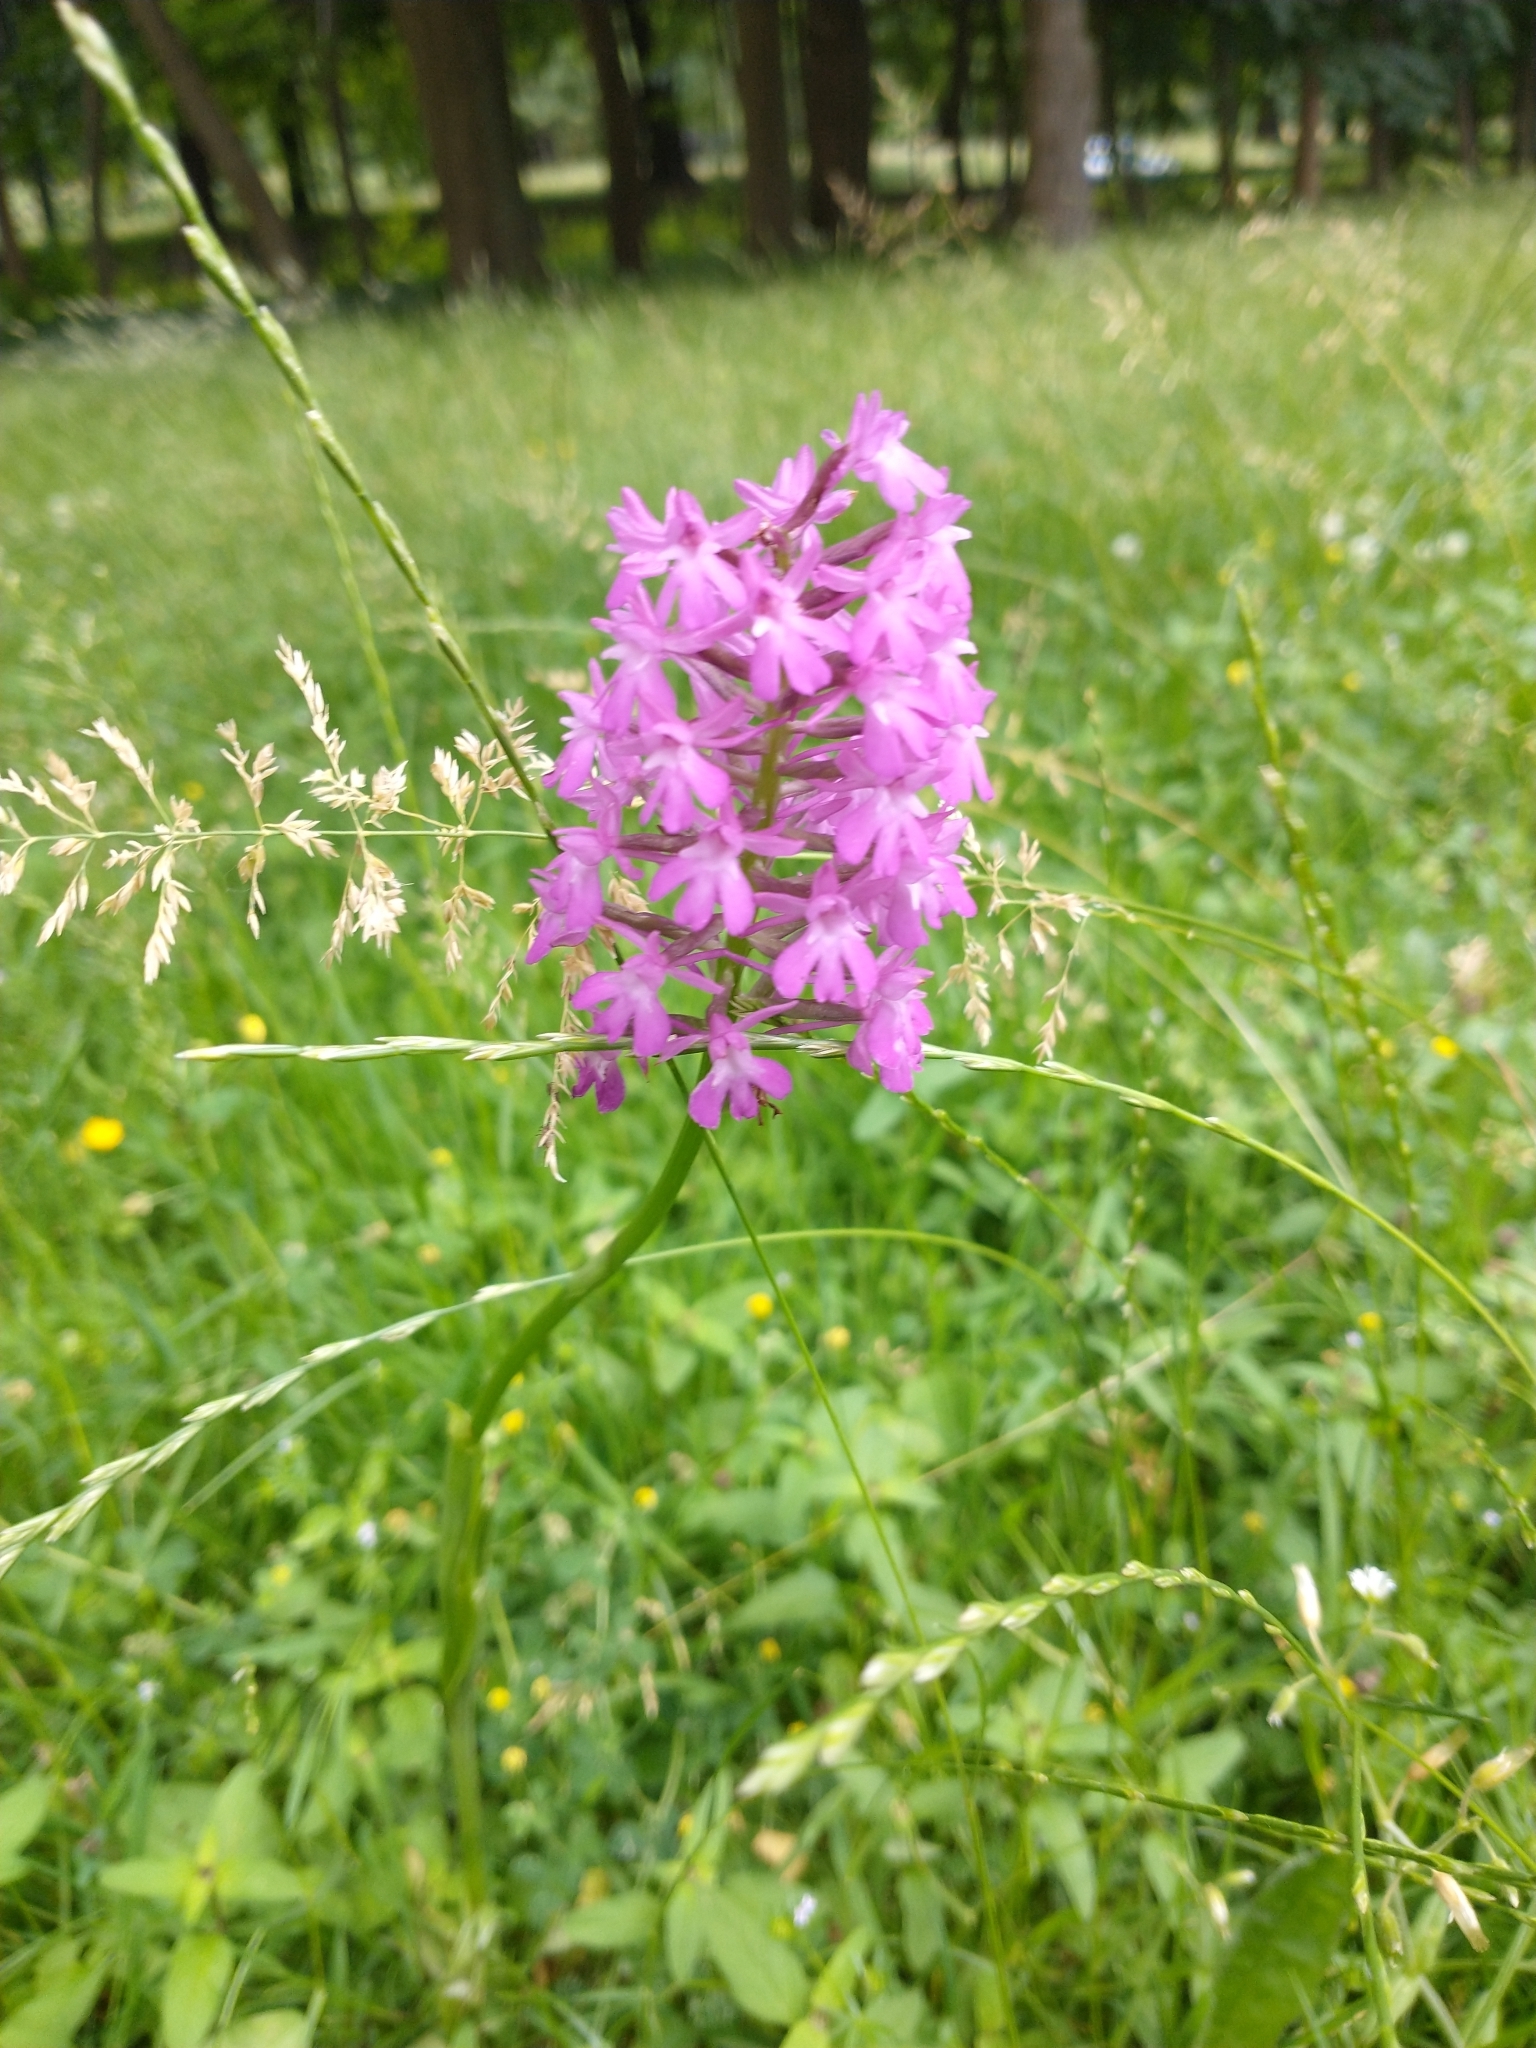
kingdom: Plantae
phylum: Tracheophyta
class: Liliopsida
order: Asparagales
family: Orchidaceae
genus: Anacamptis
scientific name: Anacamptis pyramidalis
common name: Pyramidal orchid
